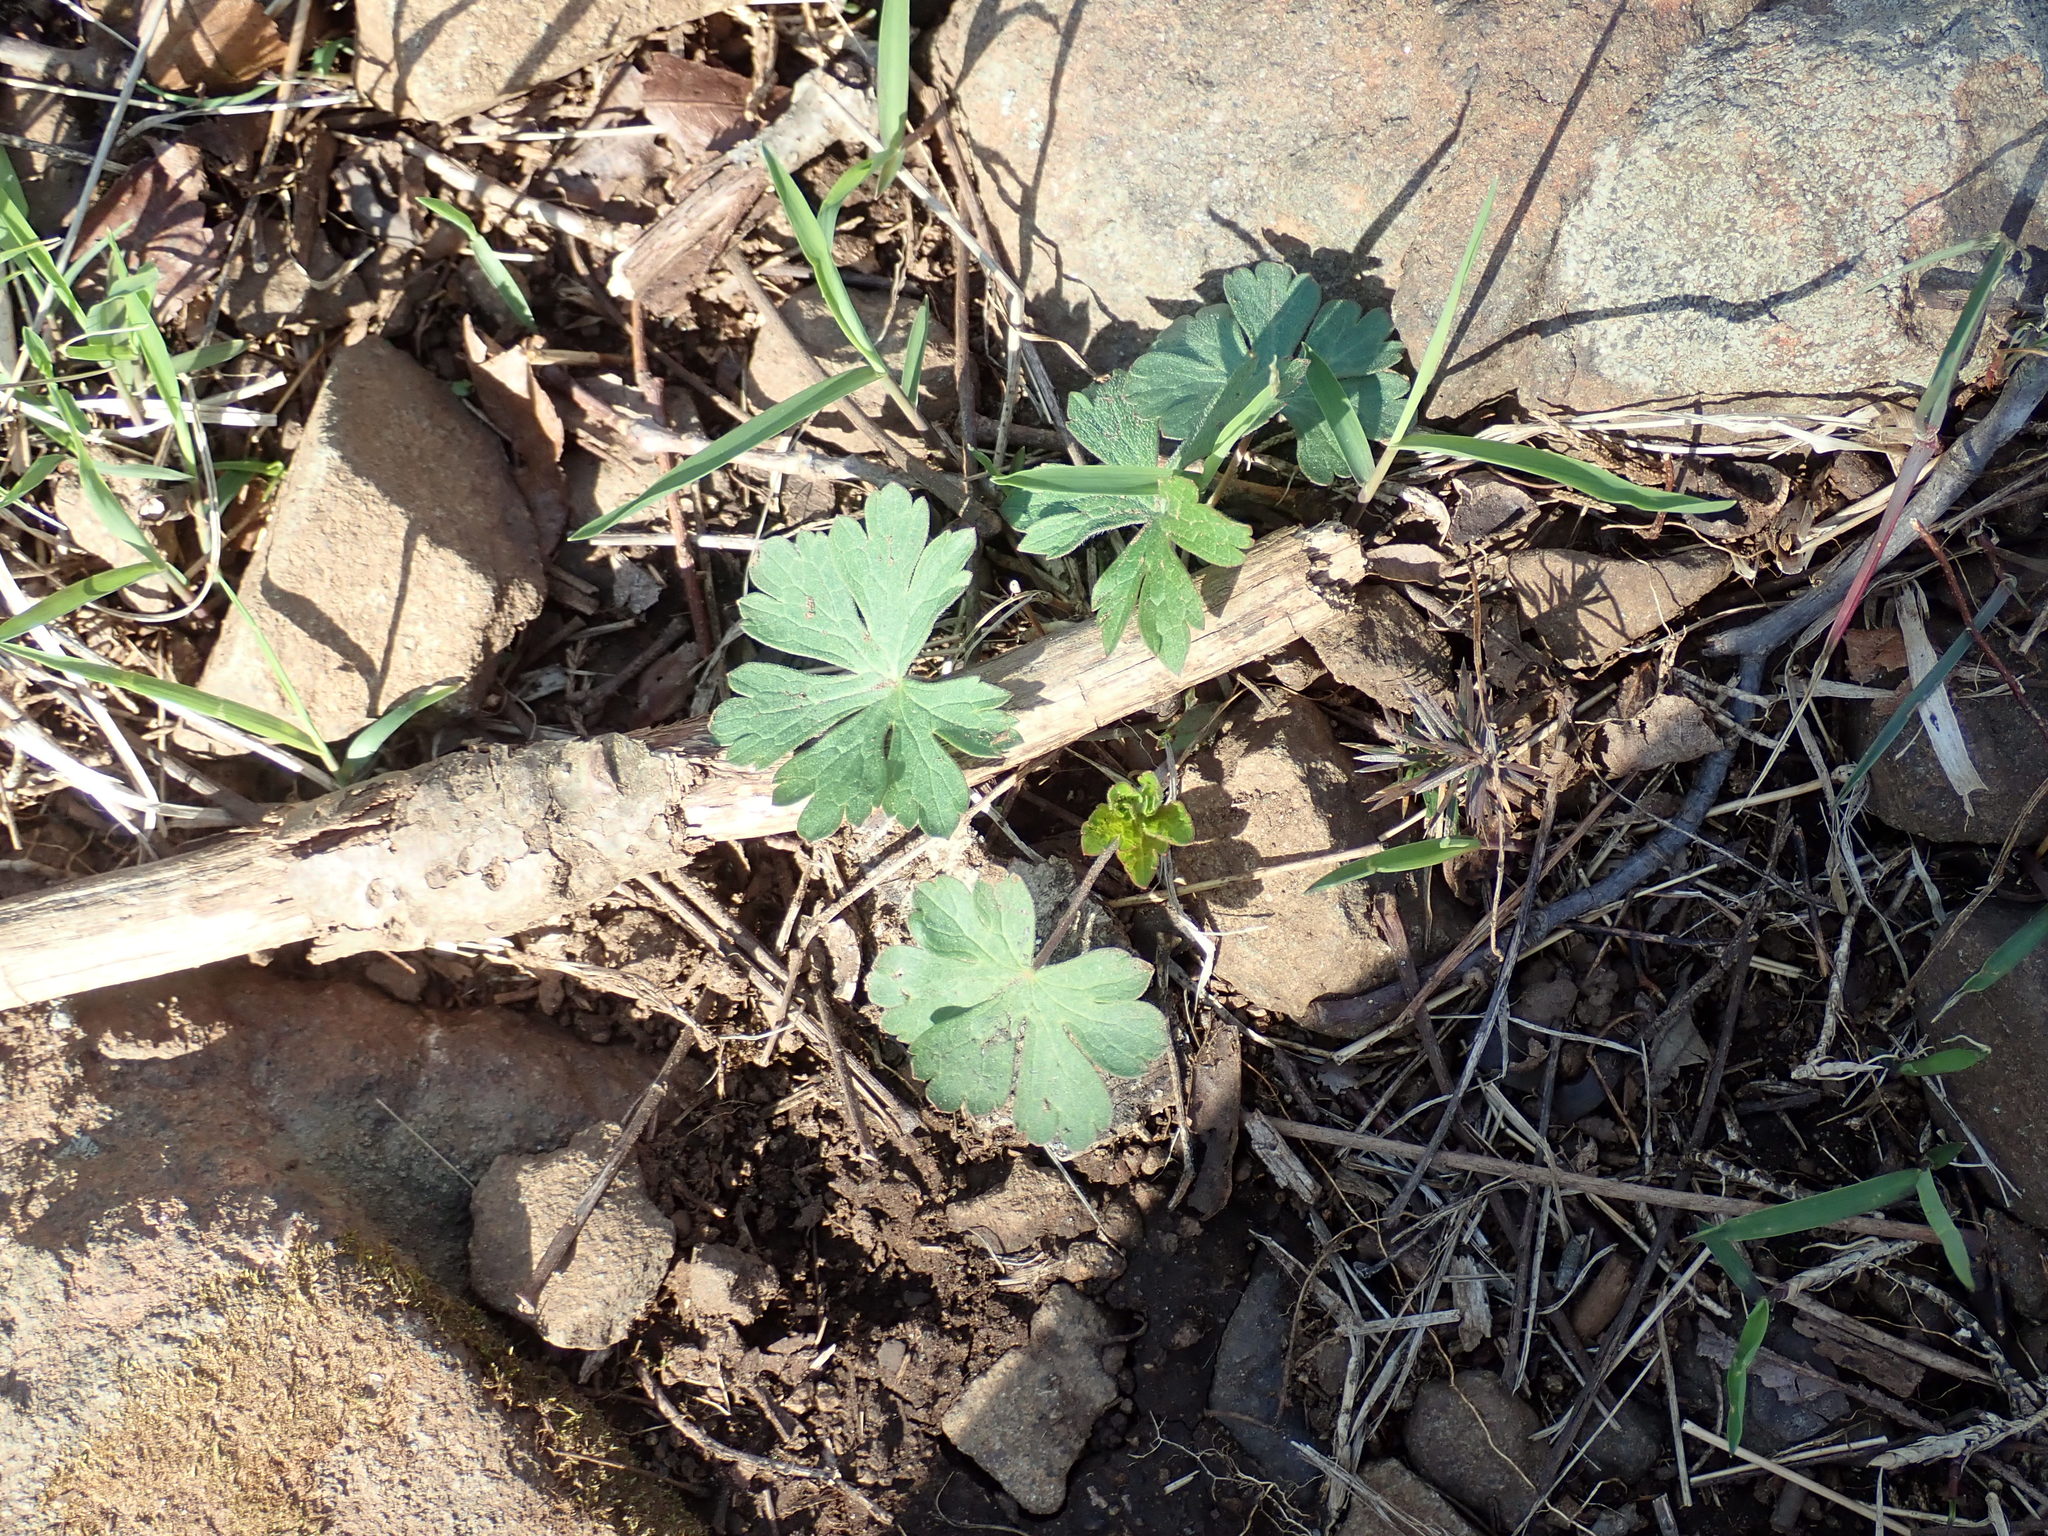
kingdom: Plantae
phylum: Tracheophyta
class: Magnoliopsida
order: Geraniales
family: Geraniaceae
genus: Geranium
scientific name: Geranium maculatum
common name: Spotted geranium
